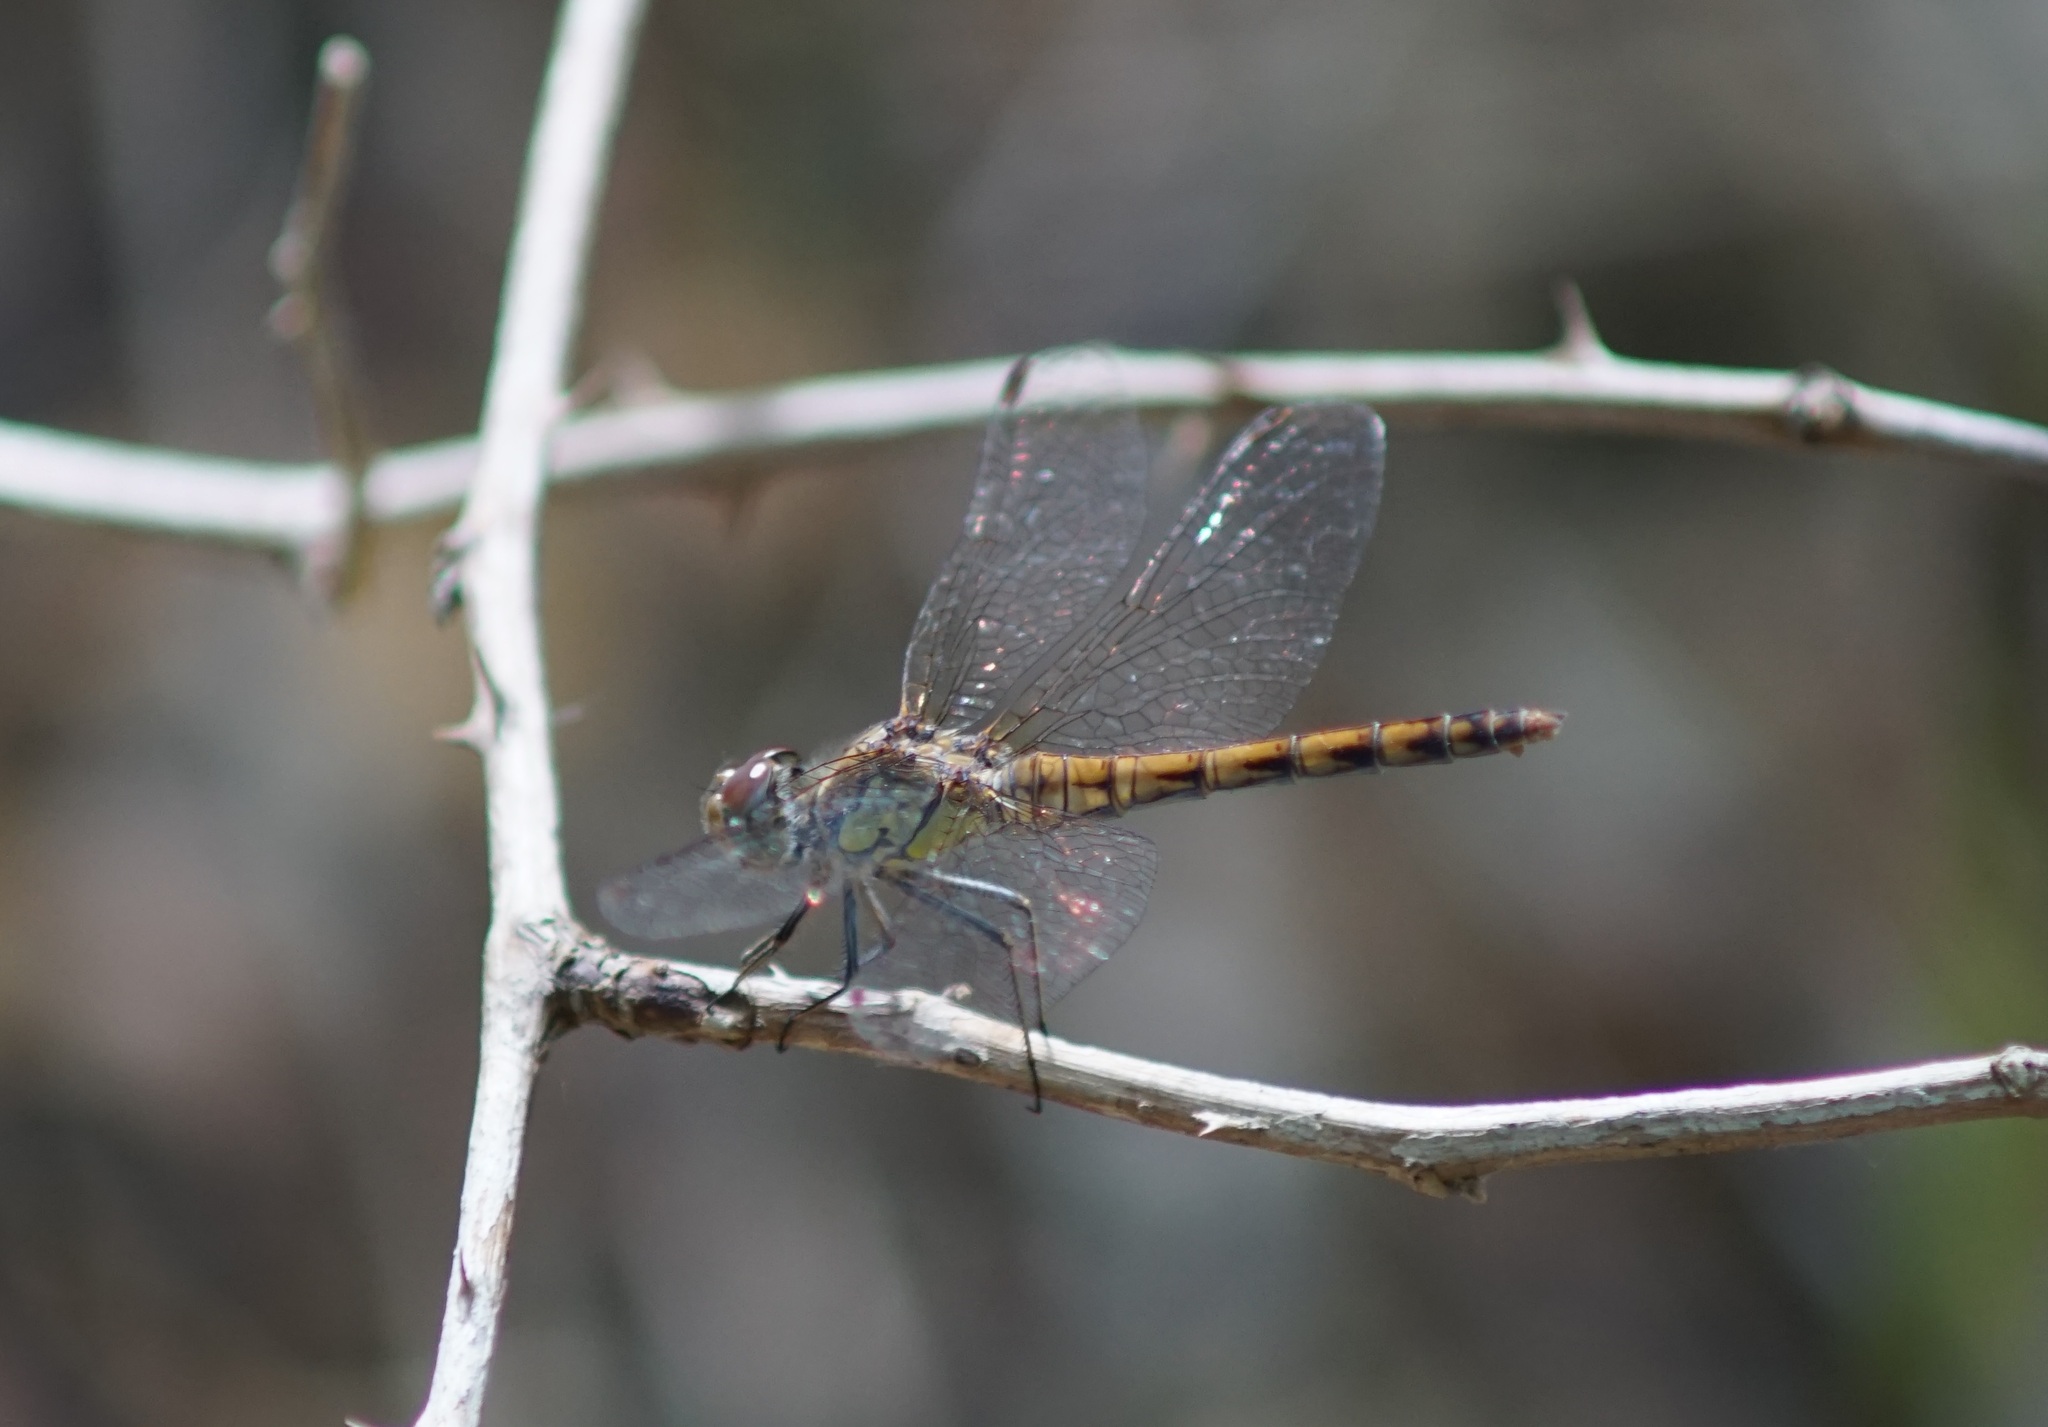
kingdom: Animalia
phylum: Arthropoda
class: Insecta
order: Odonata
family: Libellulidae
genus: Sympetrum
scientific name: Sympetrum striolatum
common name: Common darter
